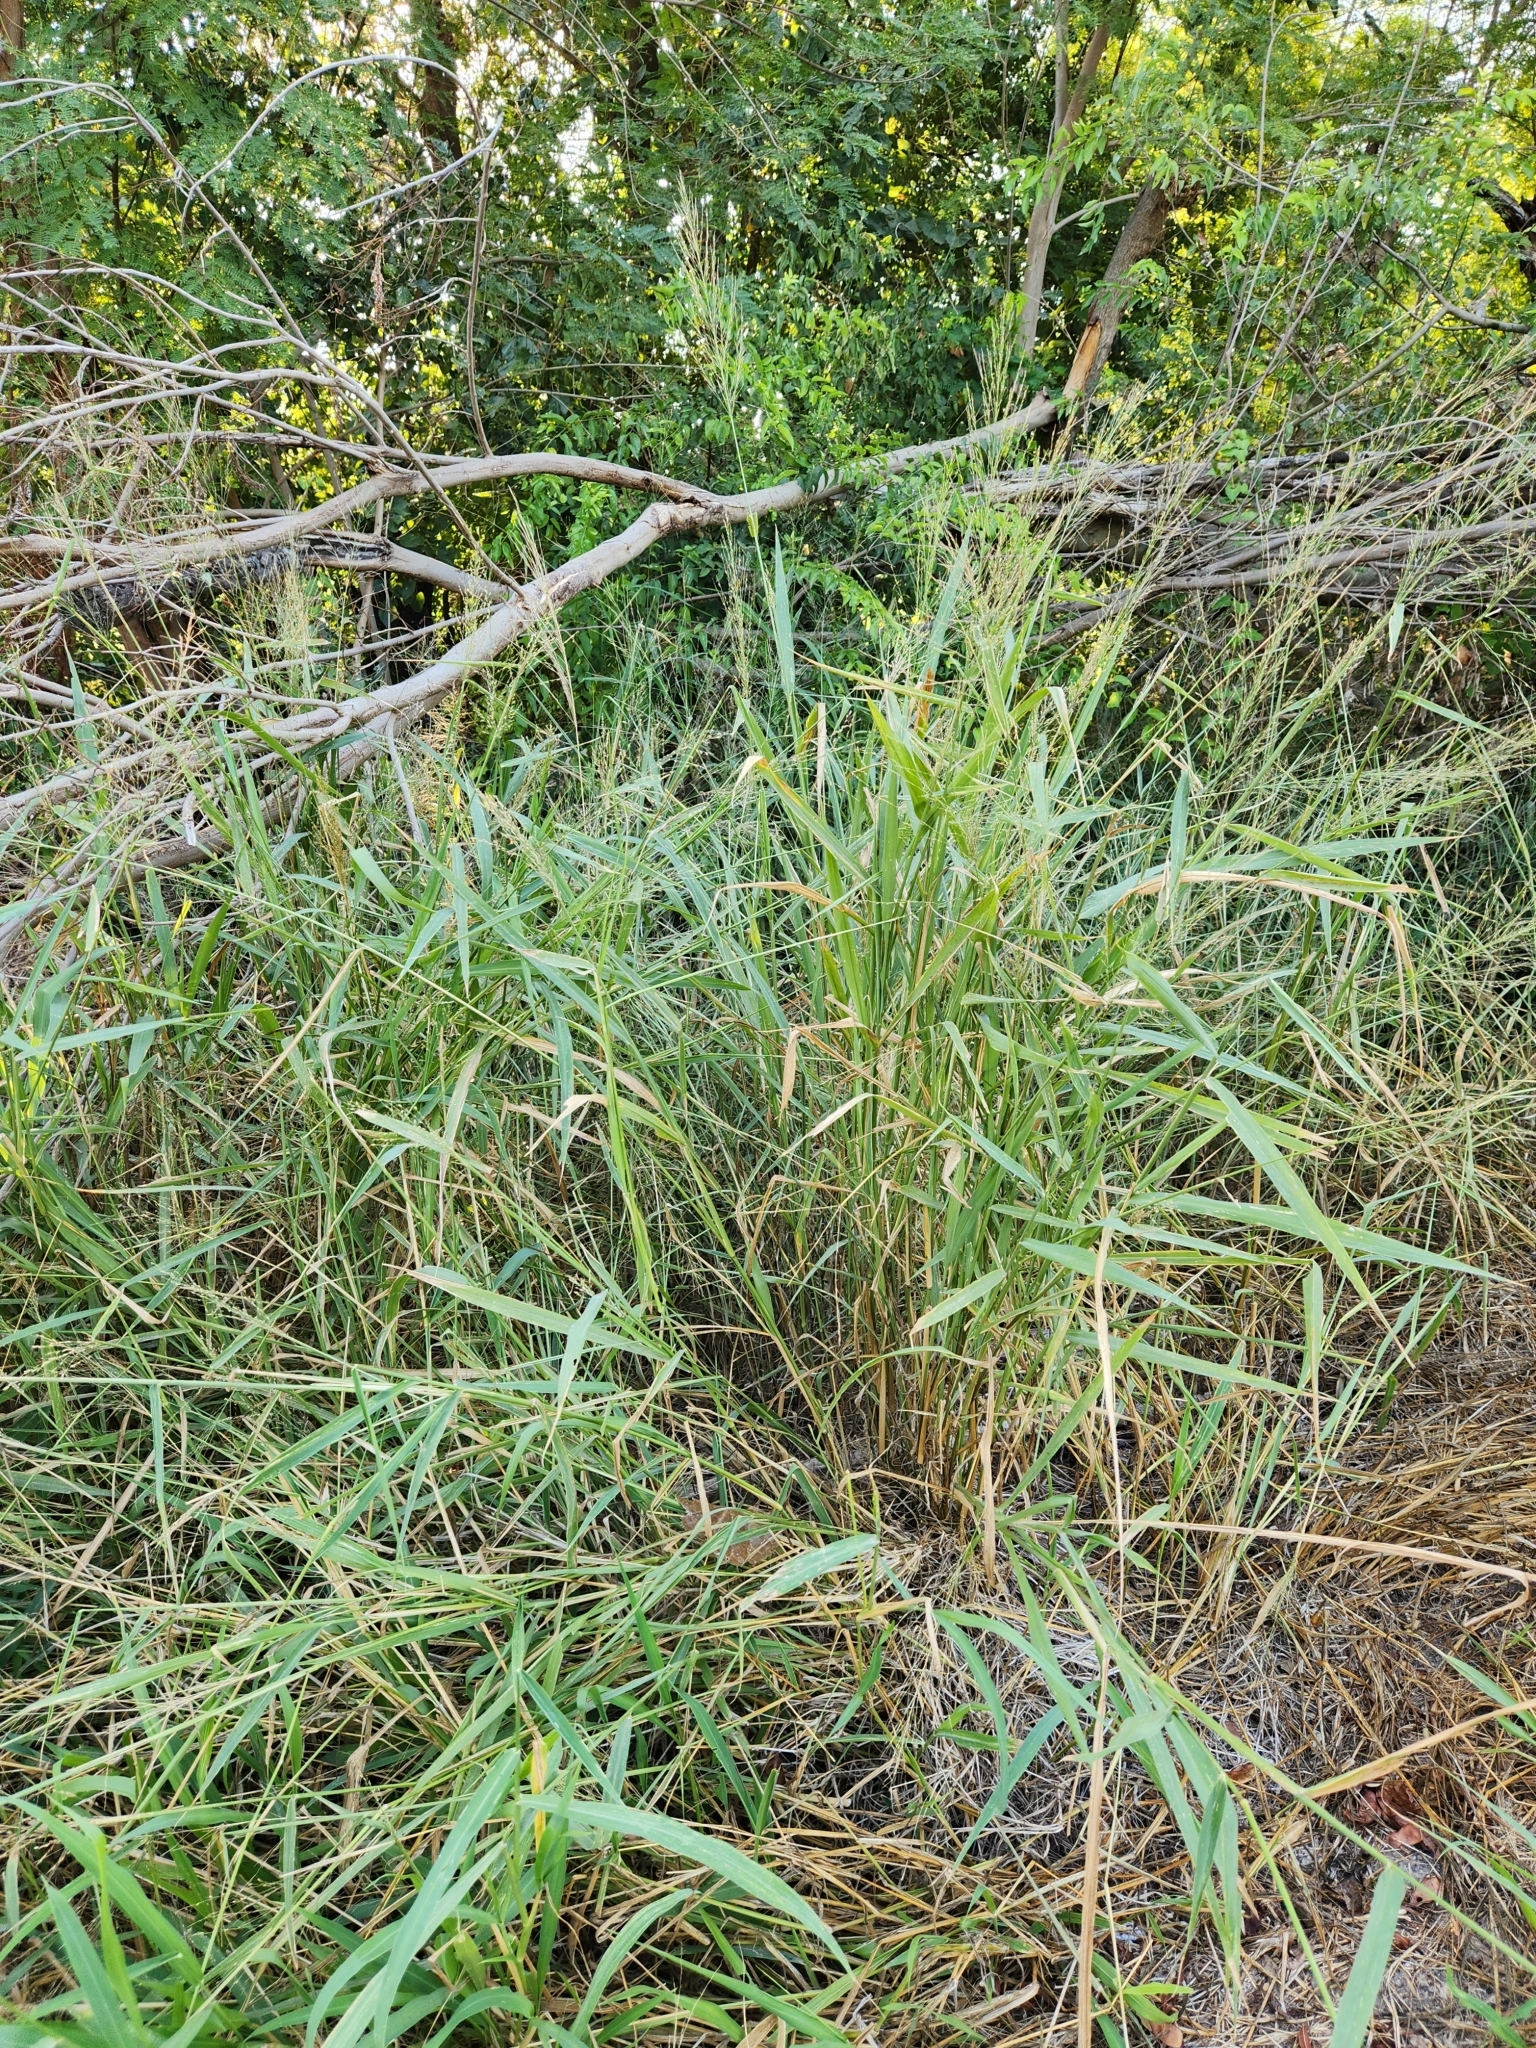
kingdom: Plantae
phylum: Tracheophyta
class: Liliopsida
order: Poales
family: Poaceae
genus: Megathyrsus
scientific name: Megathyrsus maximus
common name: Guineagrass
